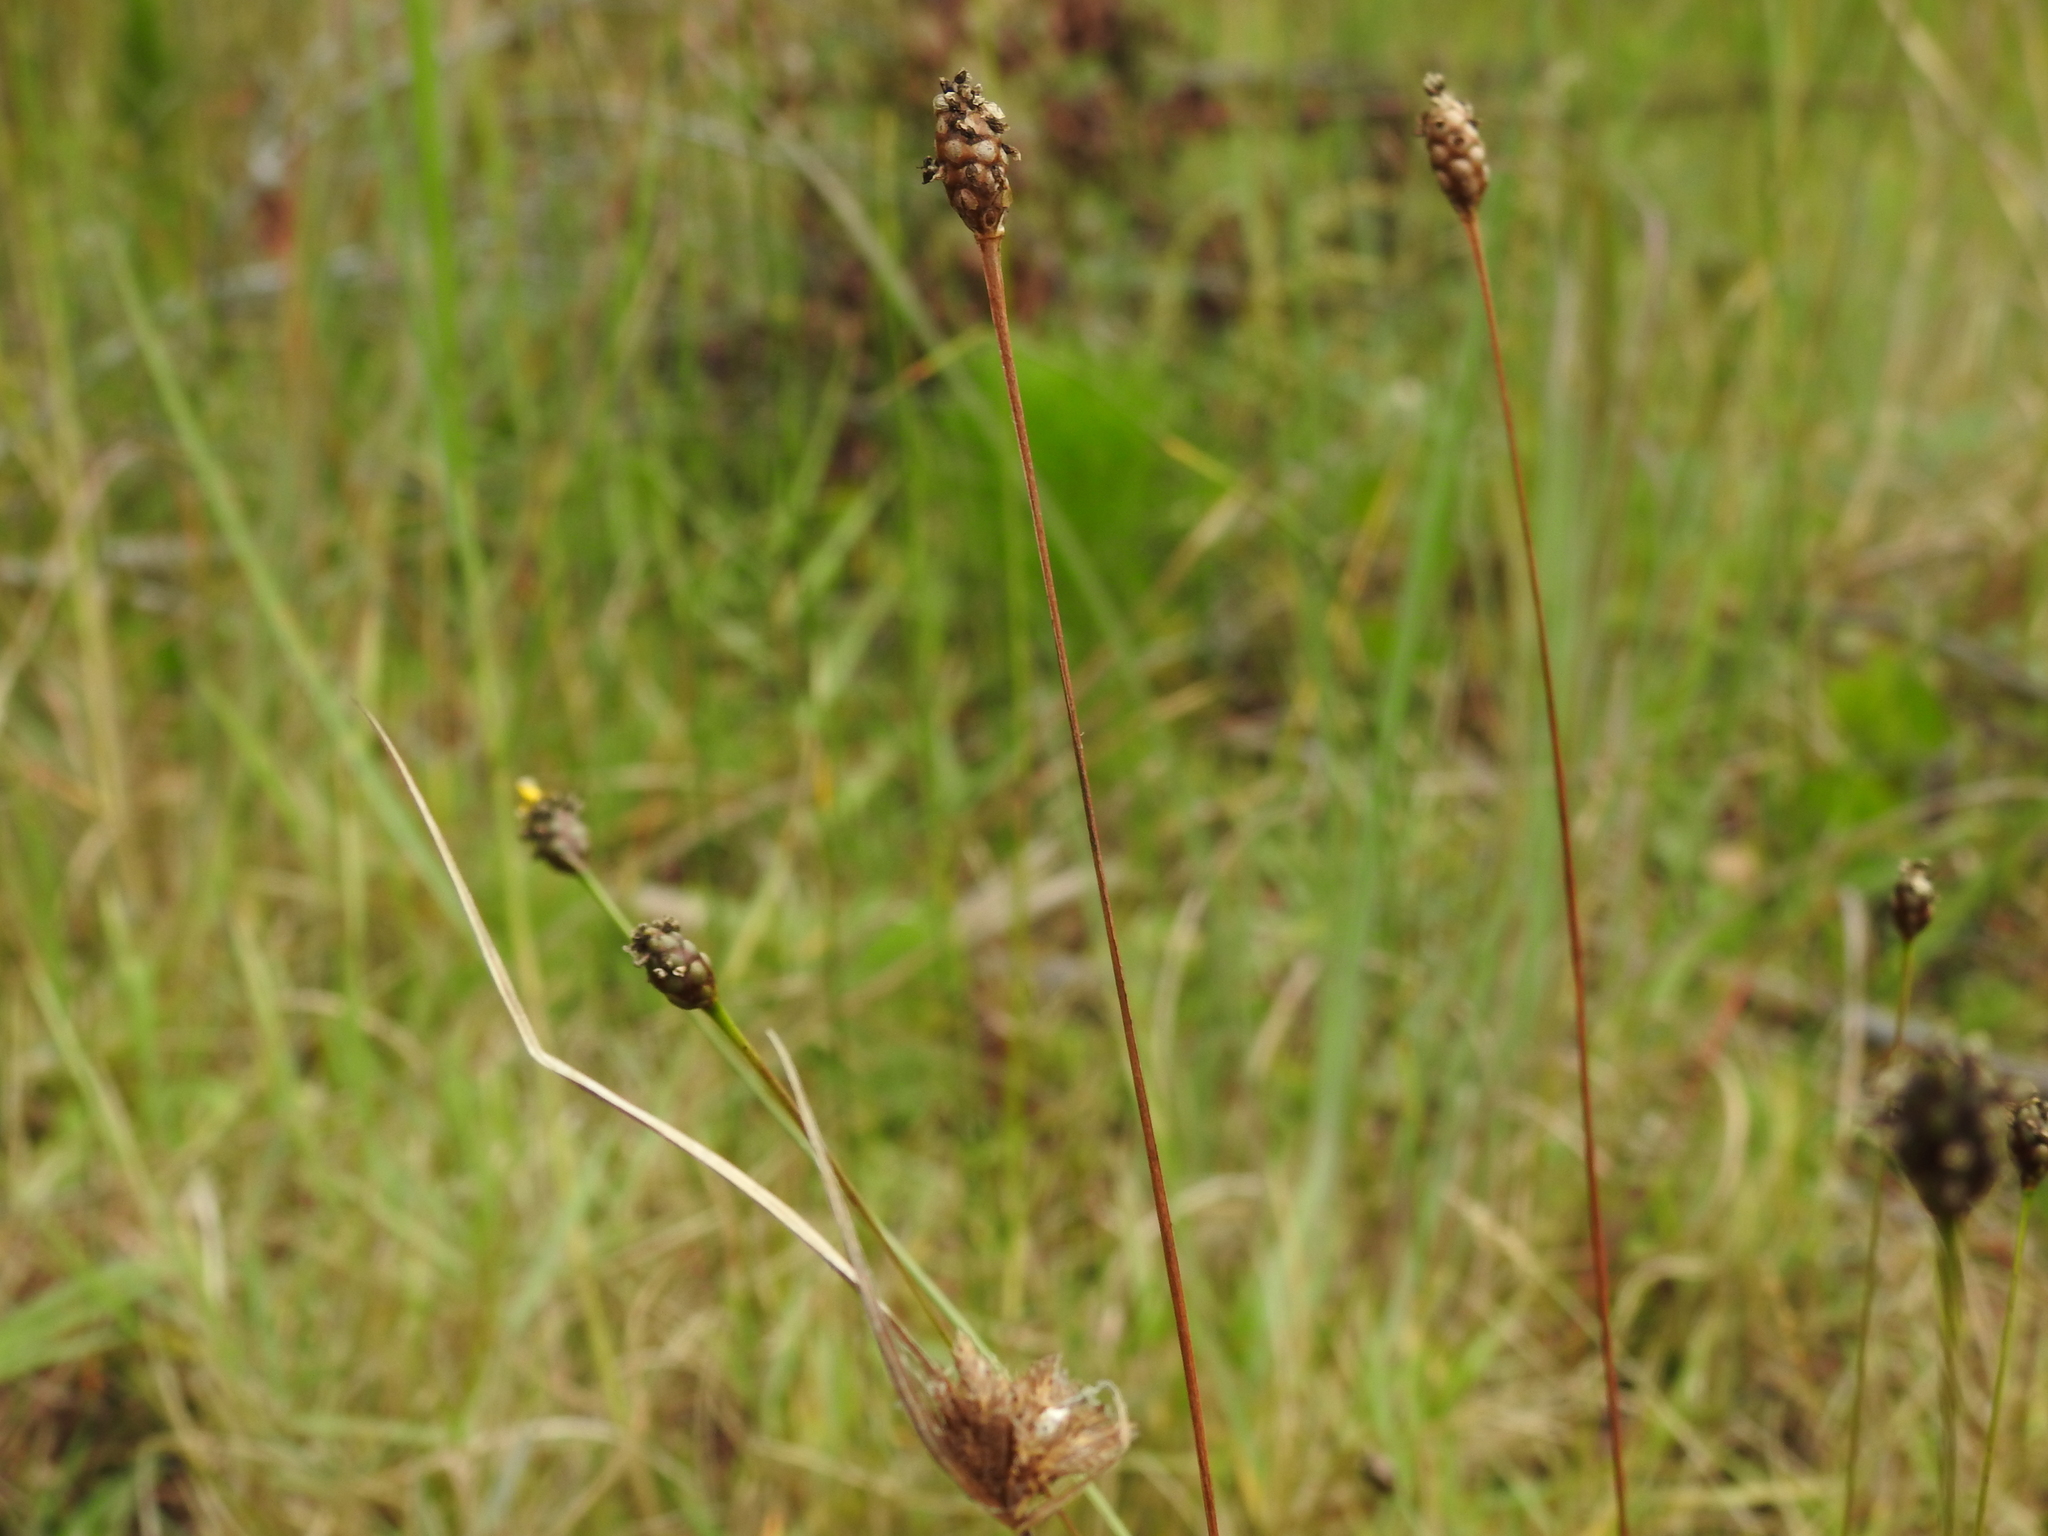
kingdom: Plantae
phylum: Tracheophyta
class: Liliopsida
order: Poales
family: Xyridaceae
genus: Xyris
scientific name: Xyris jupicai
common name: Richard's yelloweyed grass
